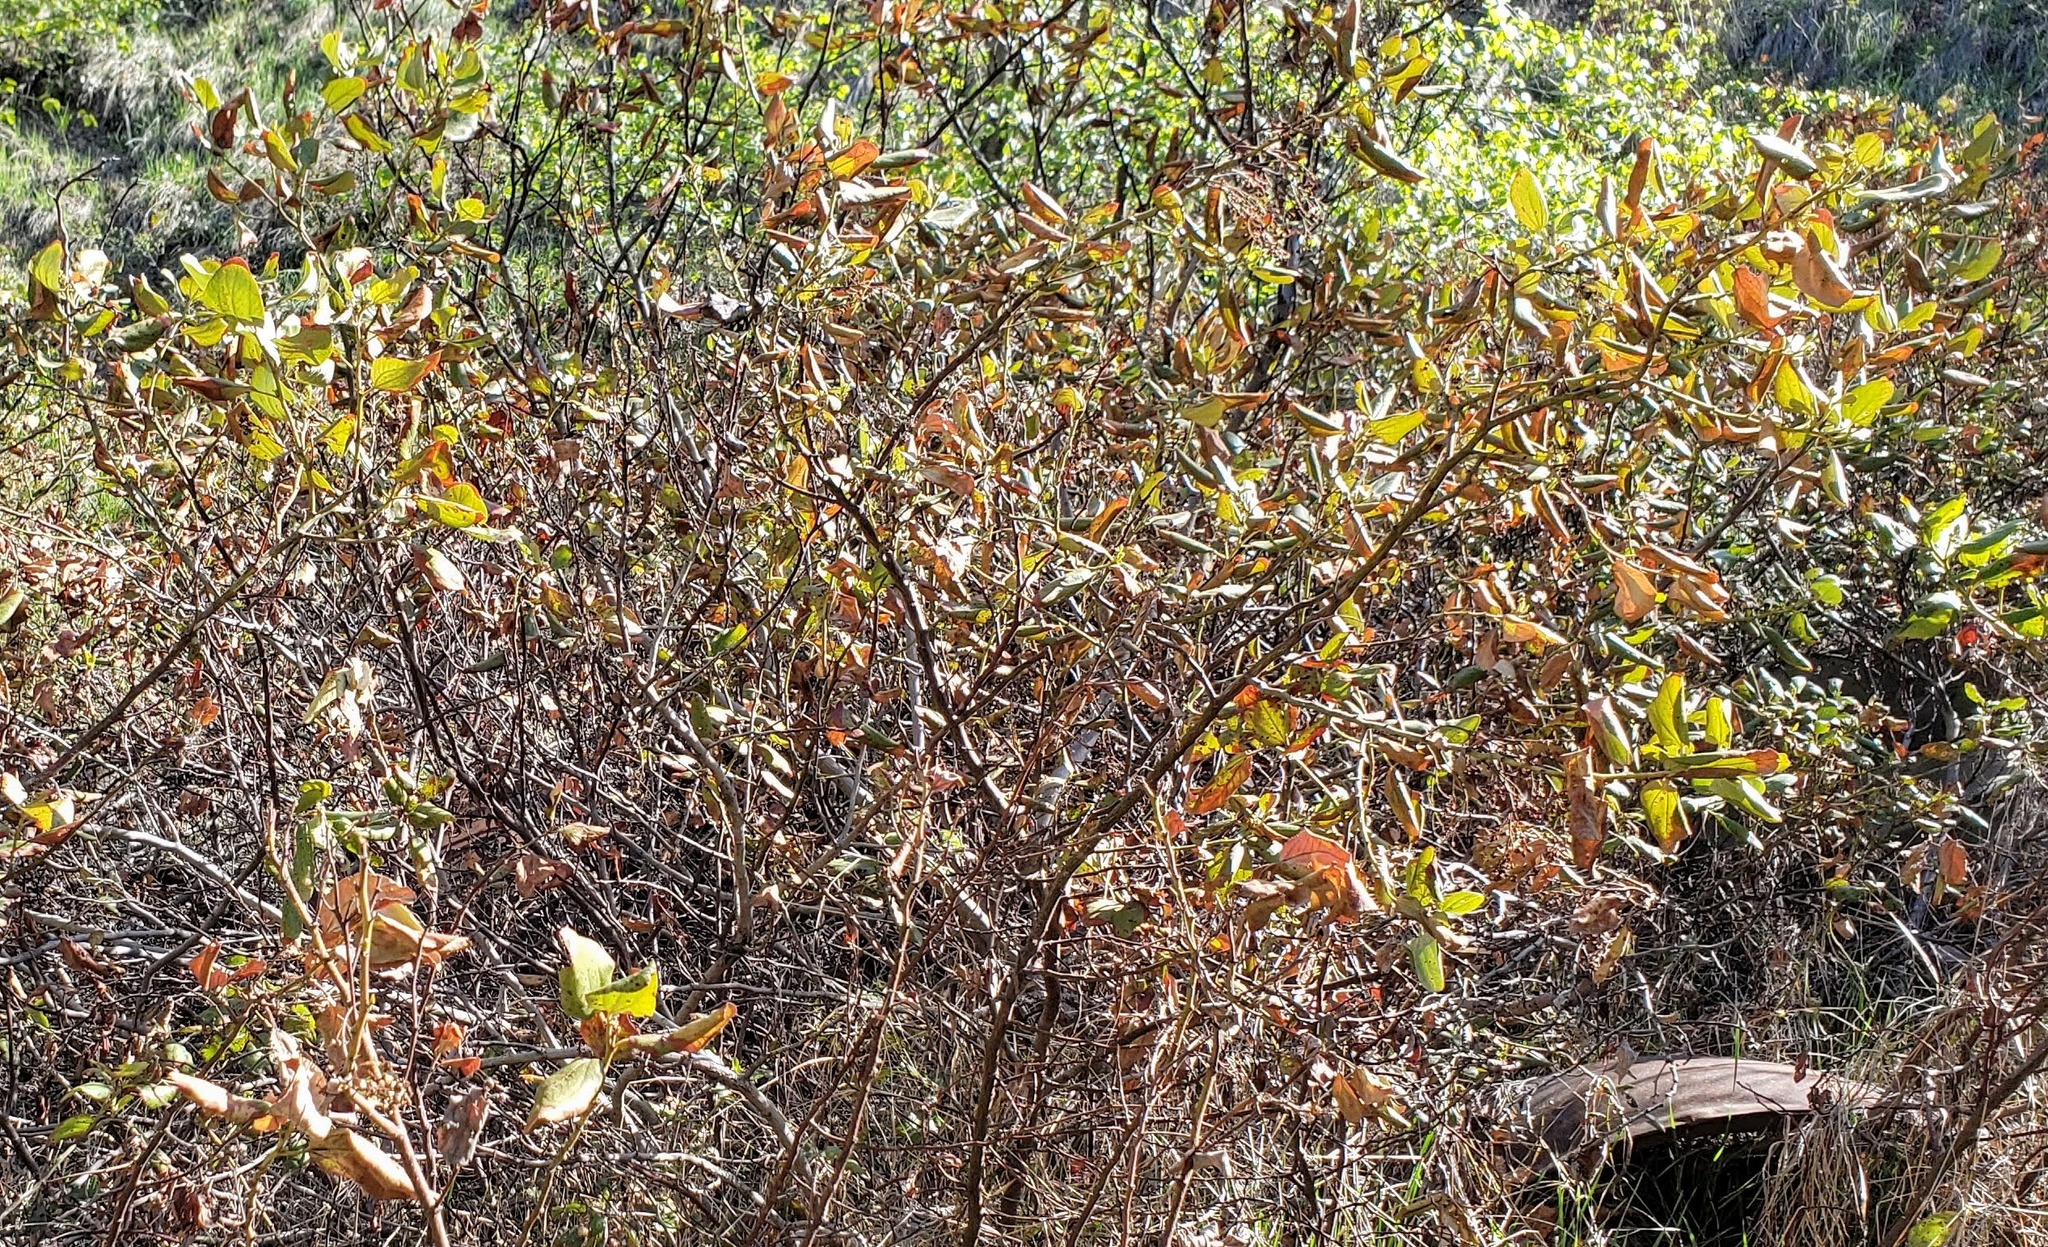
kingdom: Plantae
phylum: Tracheophyta
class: Magnoliopsida
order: Rosales
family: Rhamnaceae
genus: Ceanothus
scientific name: Ceanothus velutinus
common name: Snowbrush
